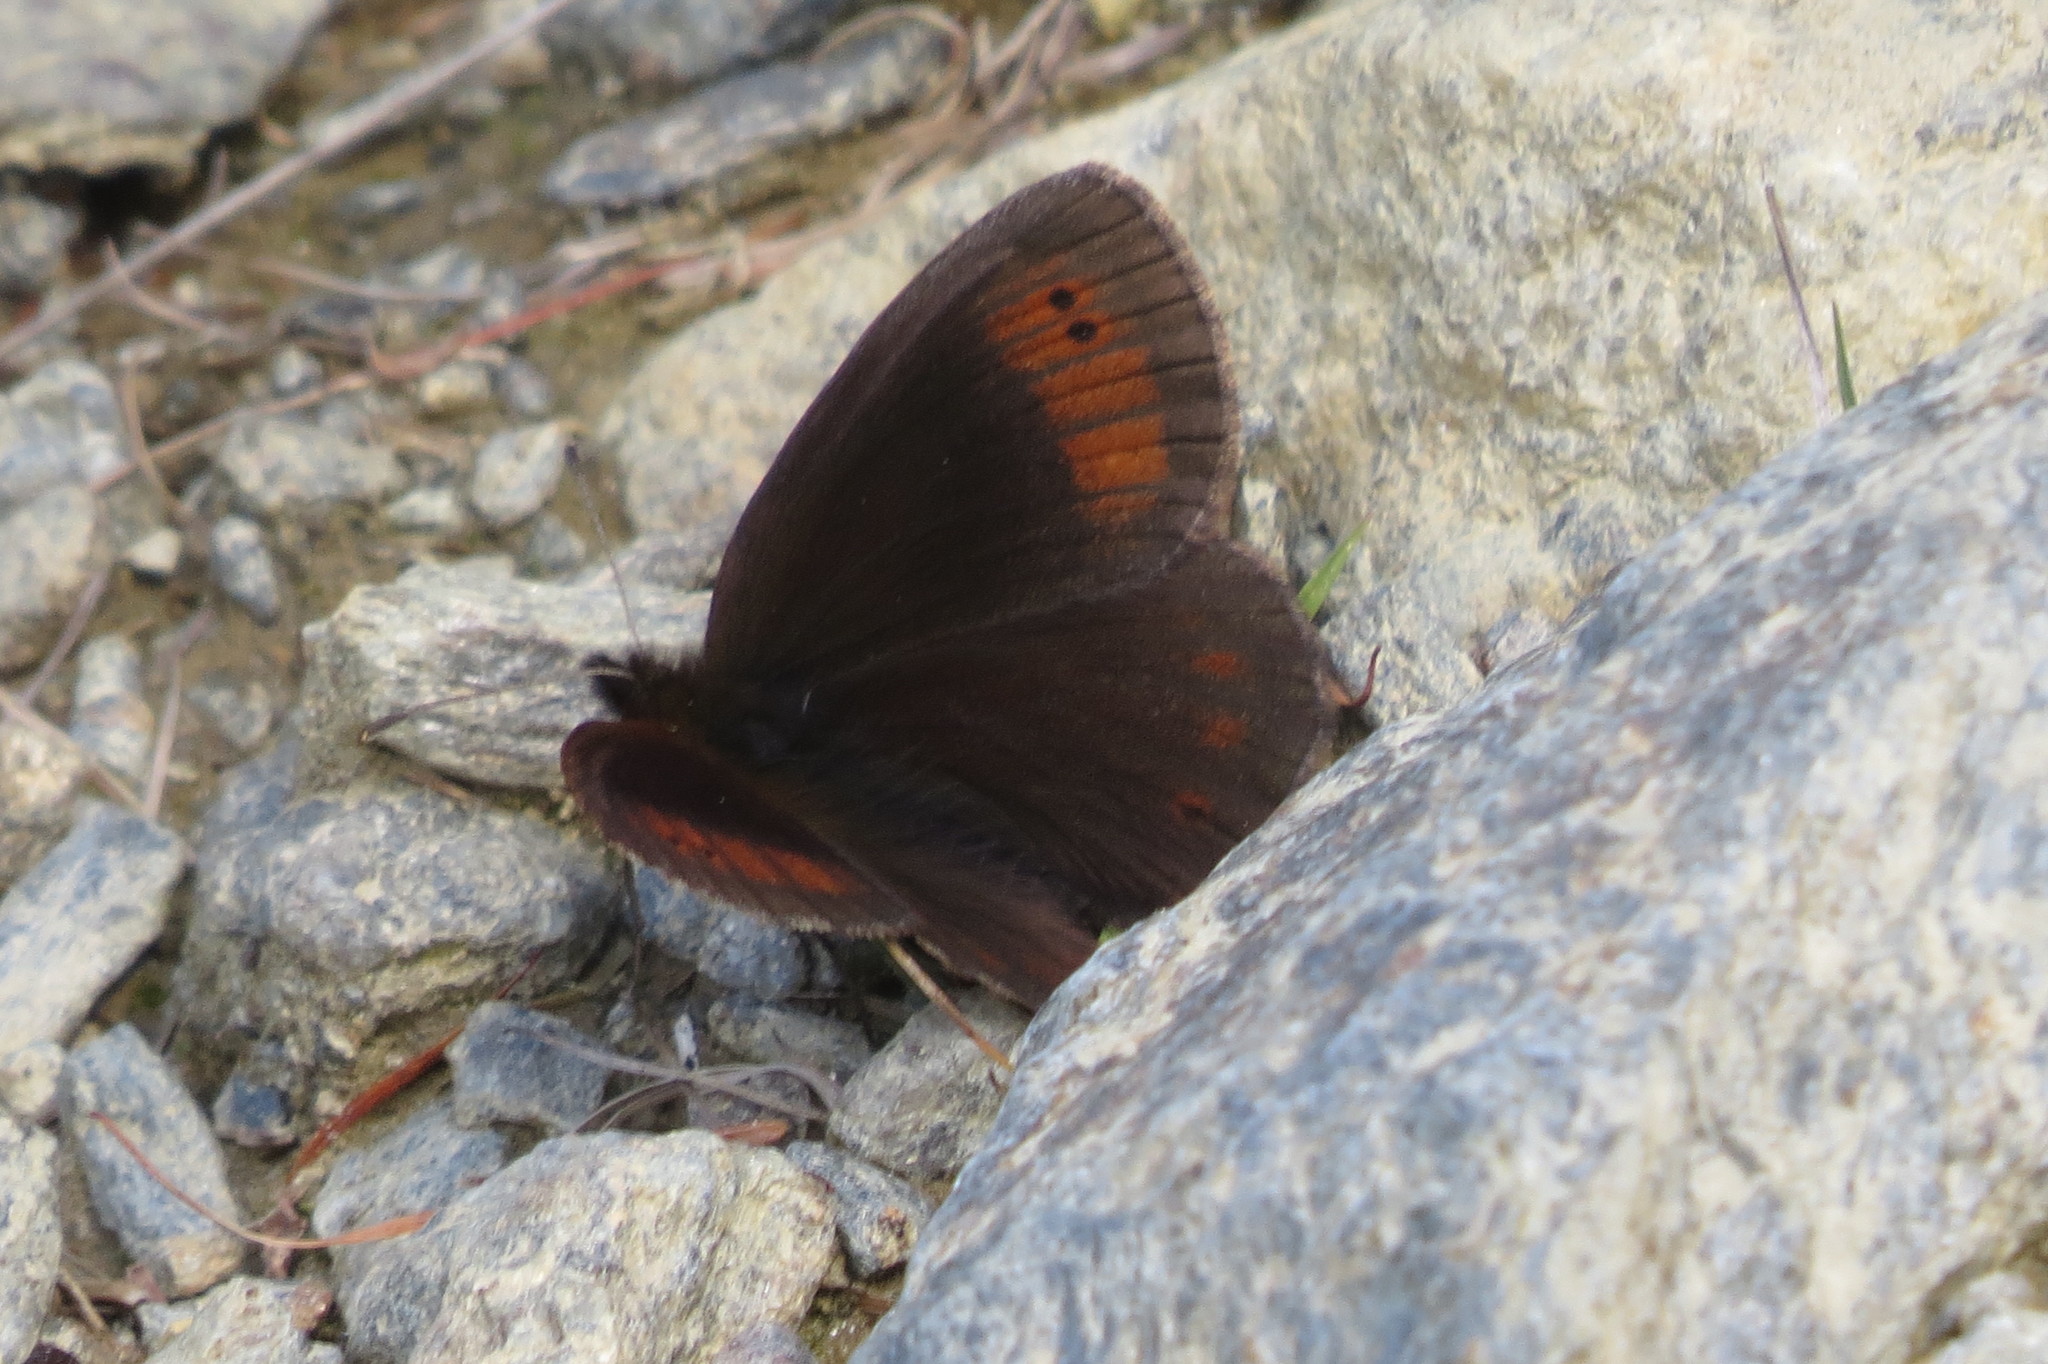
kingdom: Animalia
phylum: Arthropoda
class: Insecta
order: Lepidoptera
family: Nymphalidae
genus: Erebia
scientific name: Erebia pronoe
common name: Water ringlet
